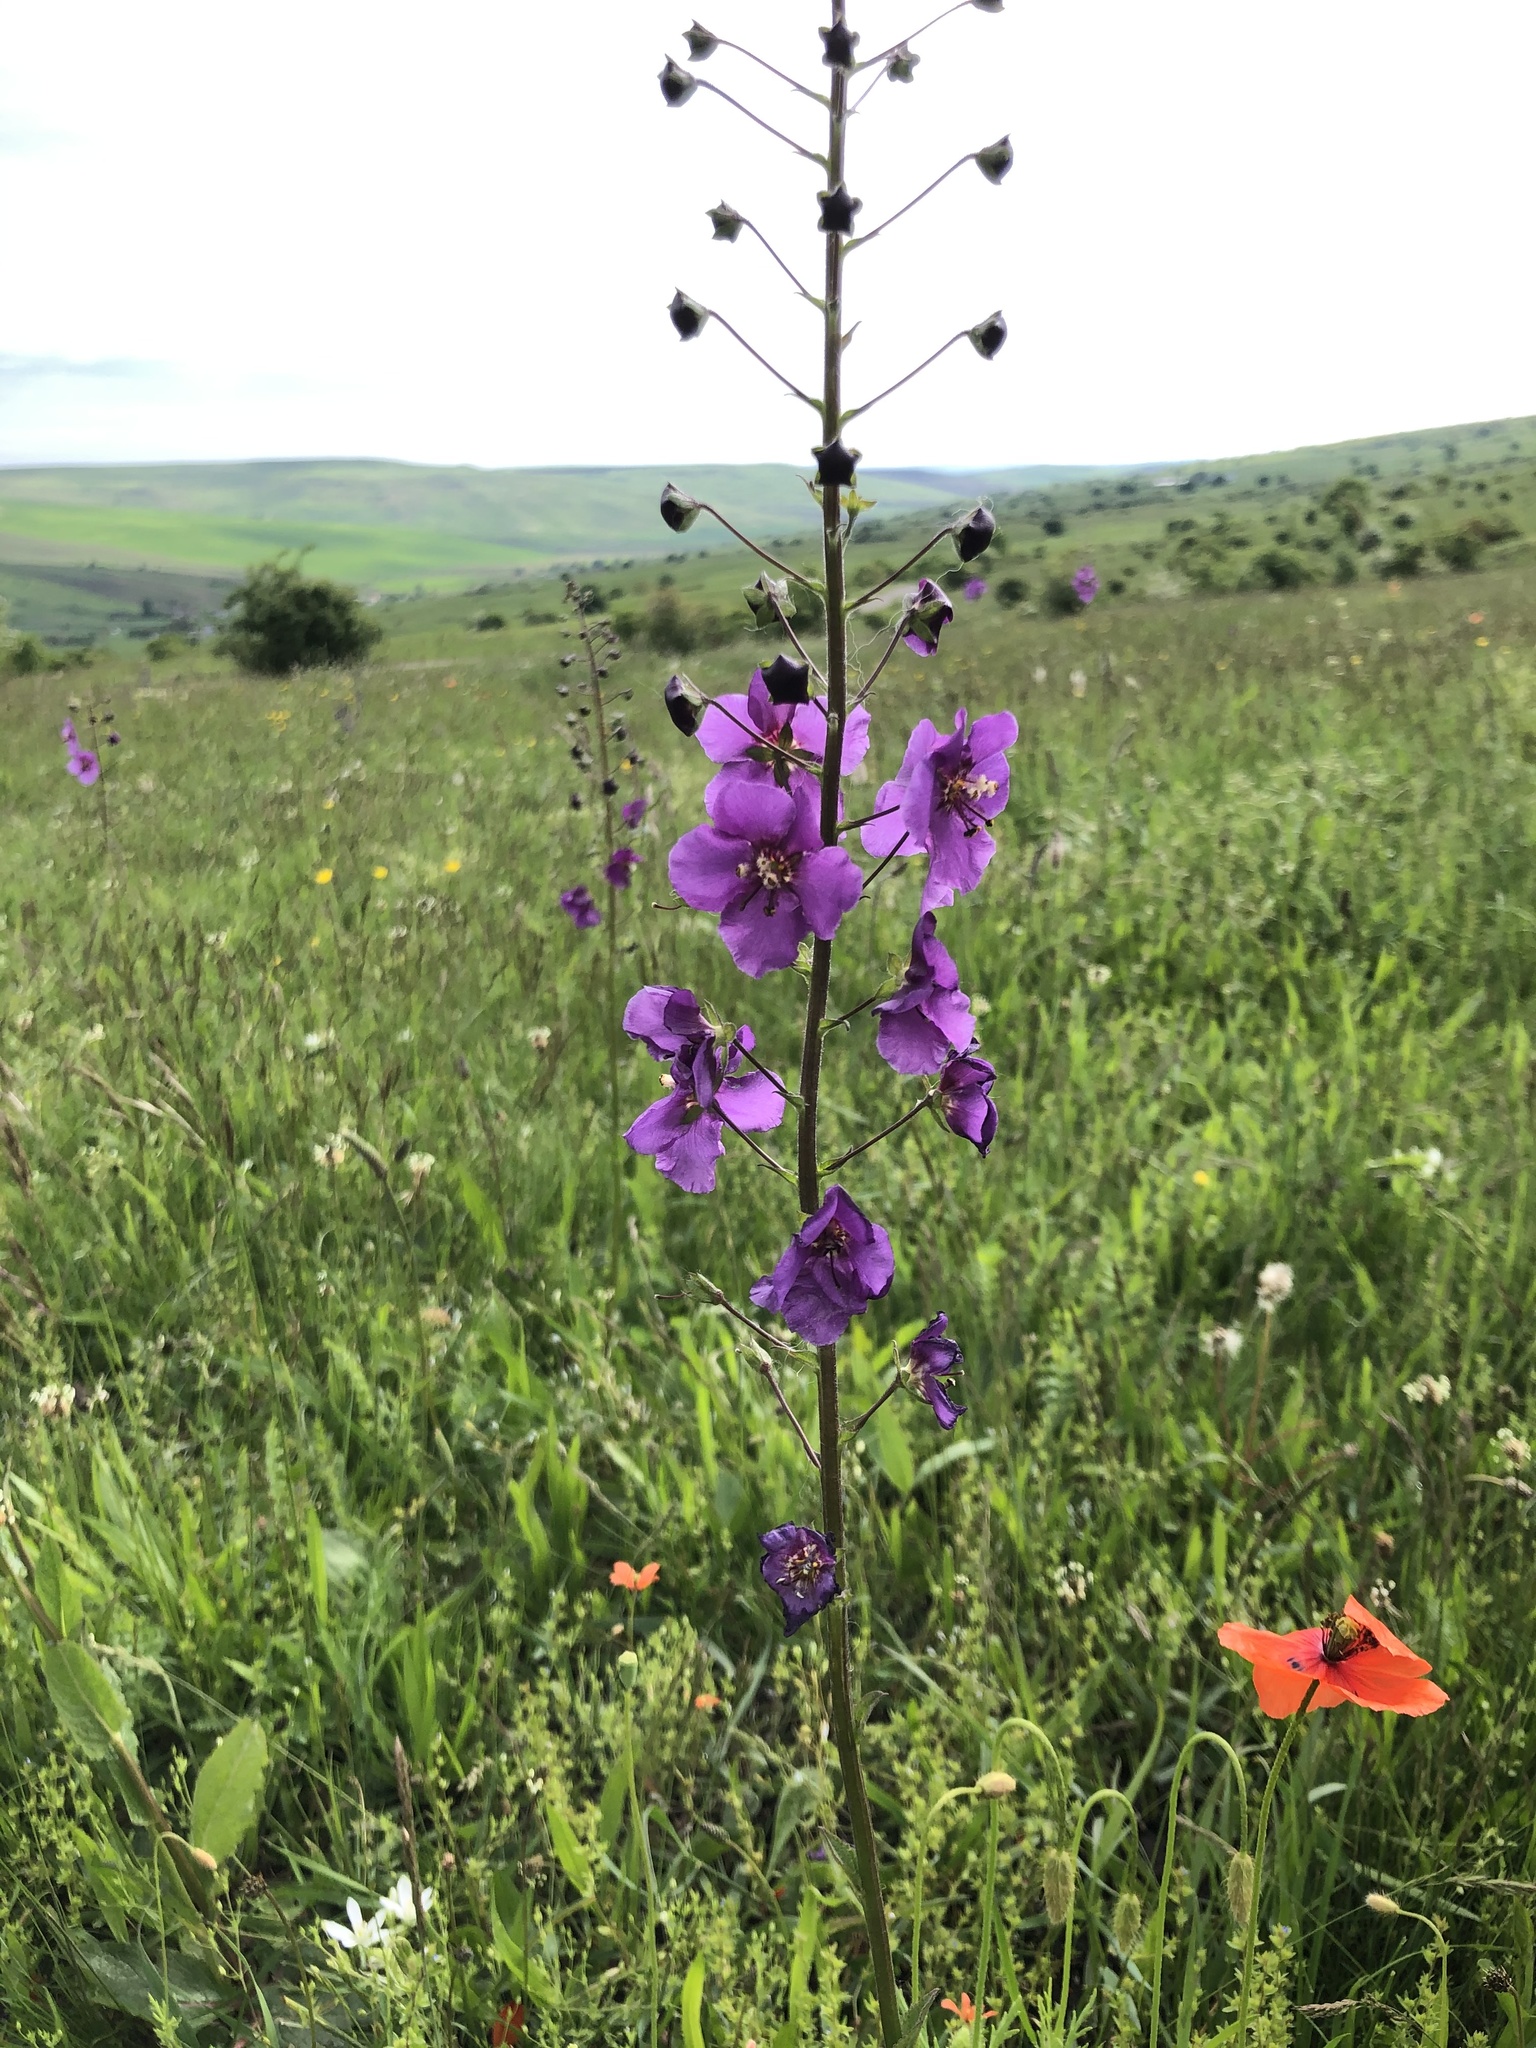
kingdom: Plantae
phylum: Tracheophyta
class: Magnoliopsida
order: Lamiales
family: Scrophulariaceae
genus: Verbascum
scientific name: Verbascum phoeniceum
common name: Purple mullein
